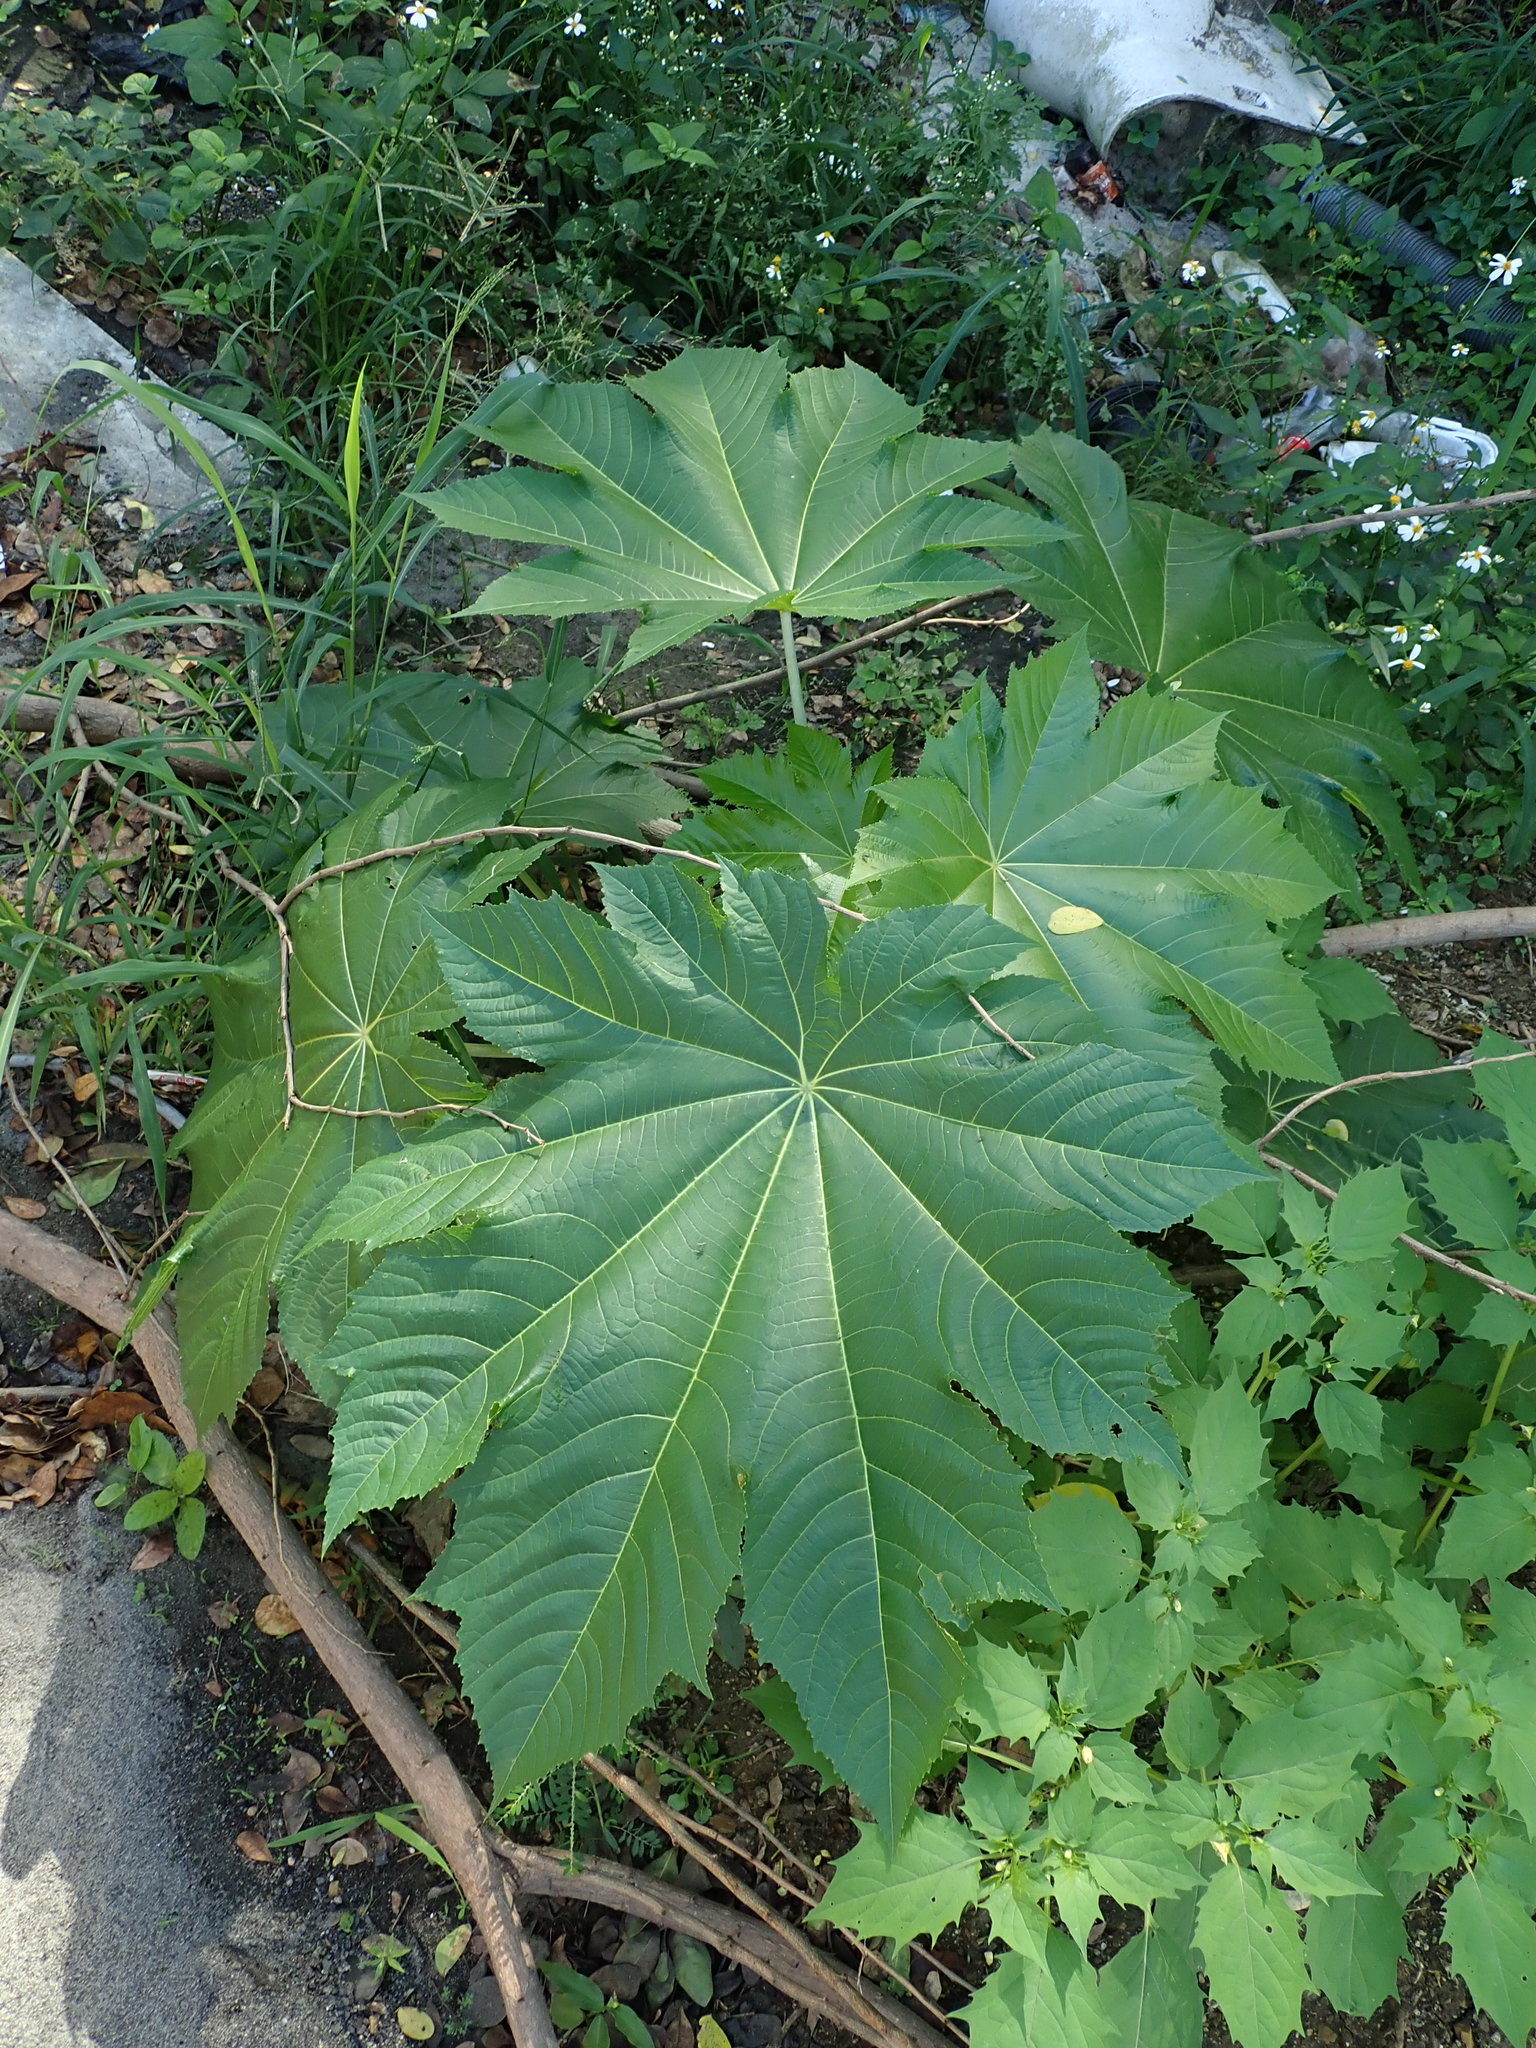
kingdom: Plantae
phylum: Tracheophyta
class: Magnoliopsida
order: Malpighiales
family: Euphorbiaceae
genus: Ricinus
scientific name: Ricinus communis
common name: Castor-oil-plant
